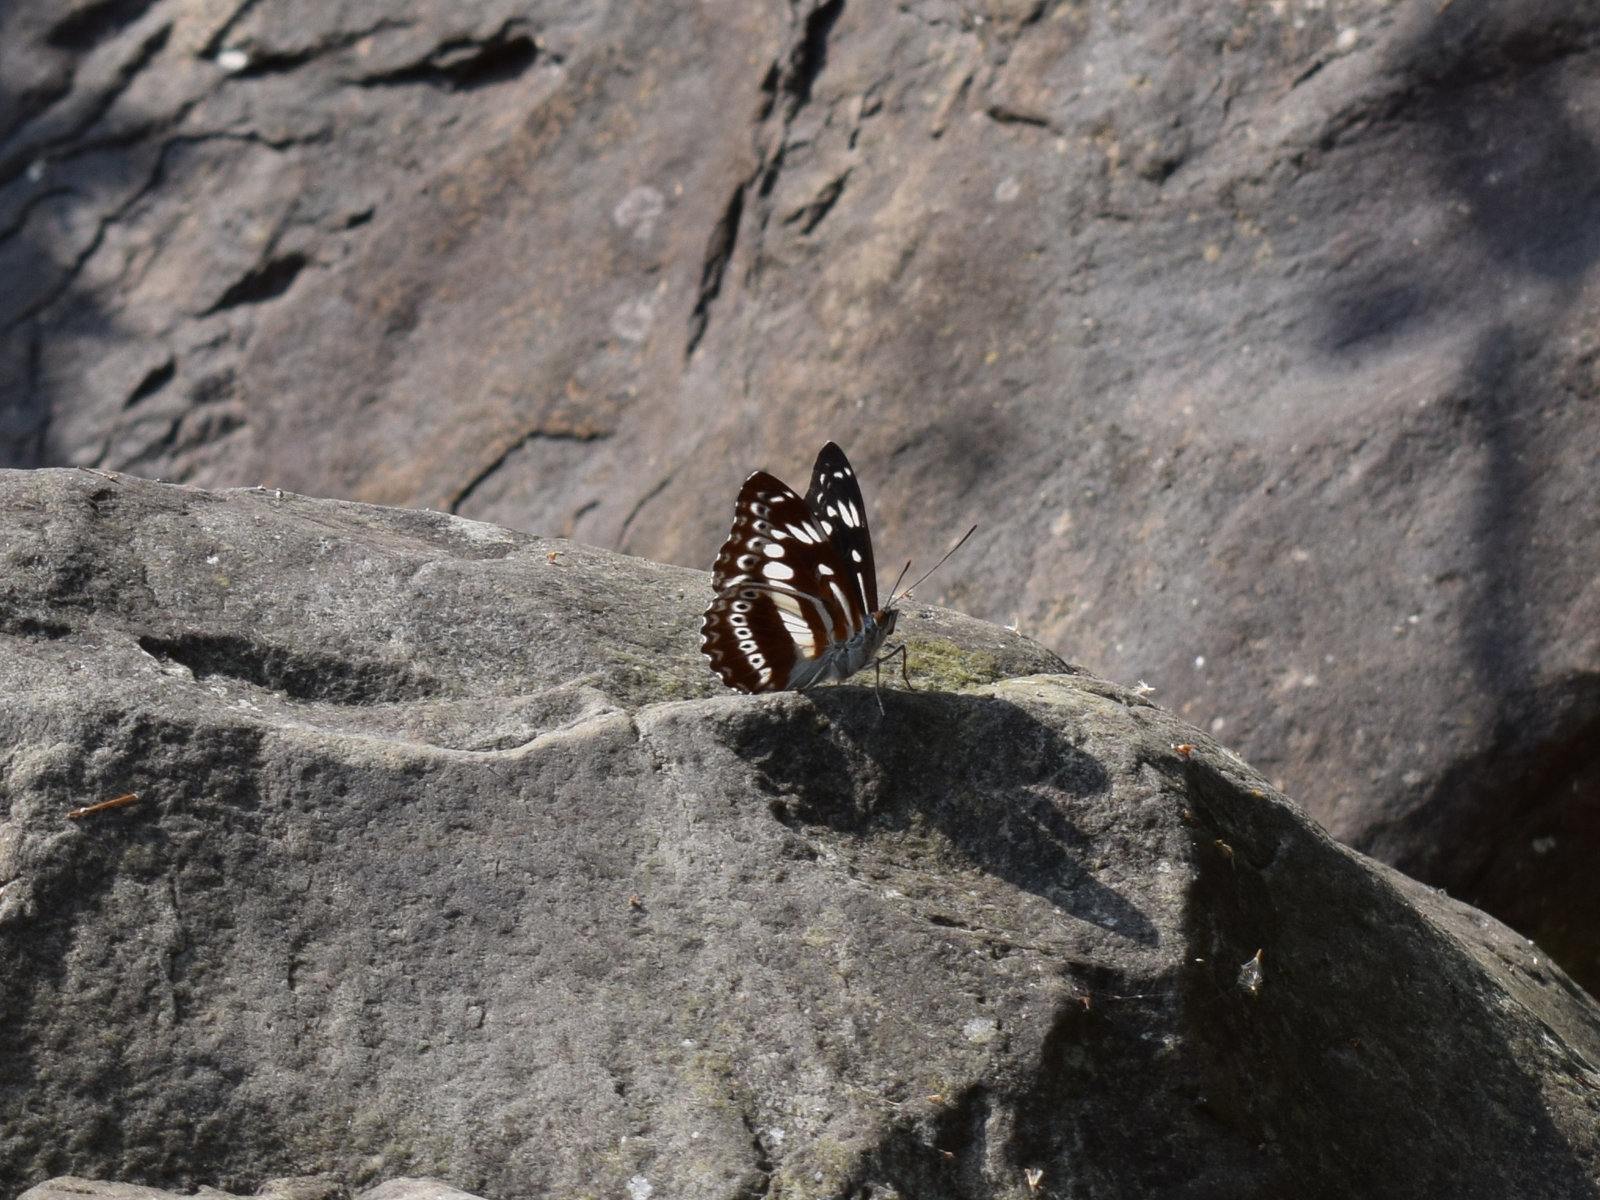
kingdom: Animalia
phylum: Arthropoda
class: Insecta
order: Lepidoptera
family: Nymphalidae
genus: Parathyma
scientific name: Parathyma asura
